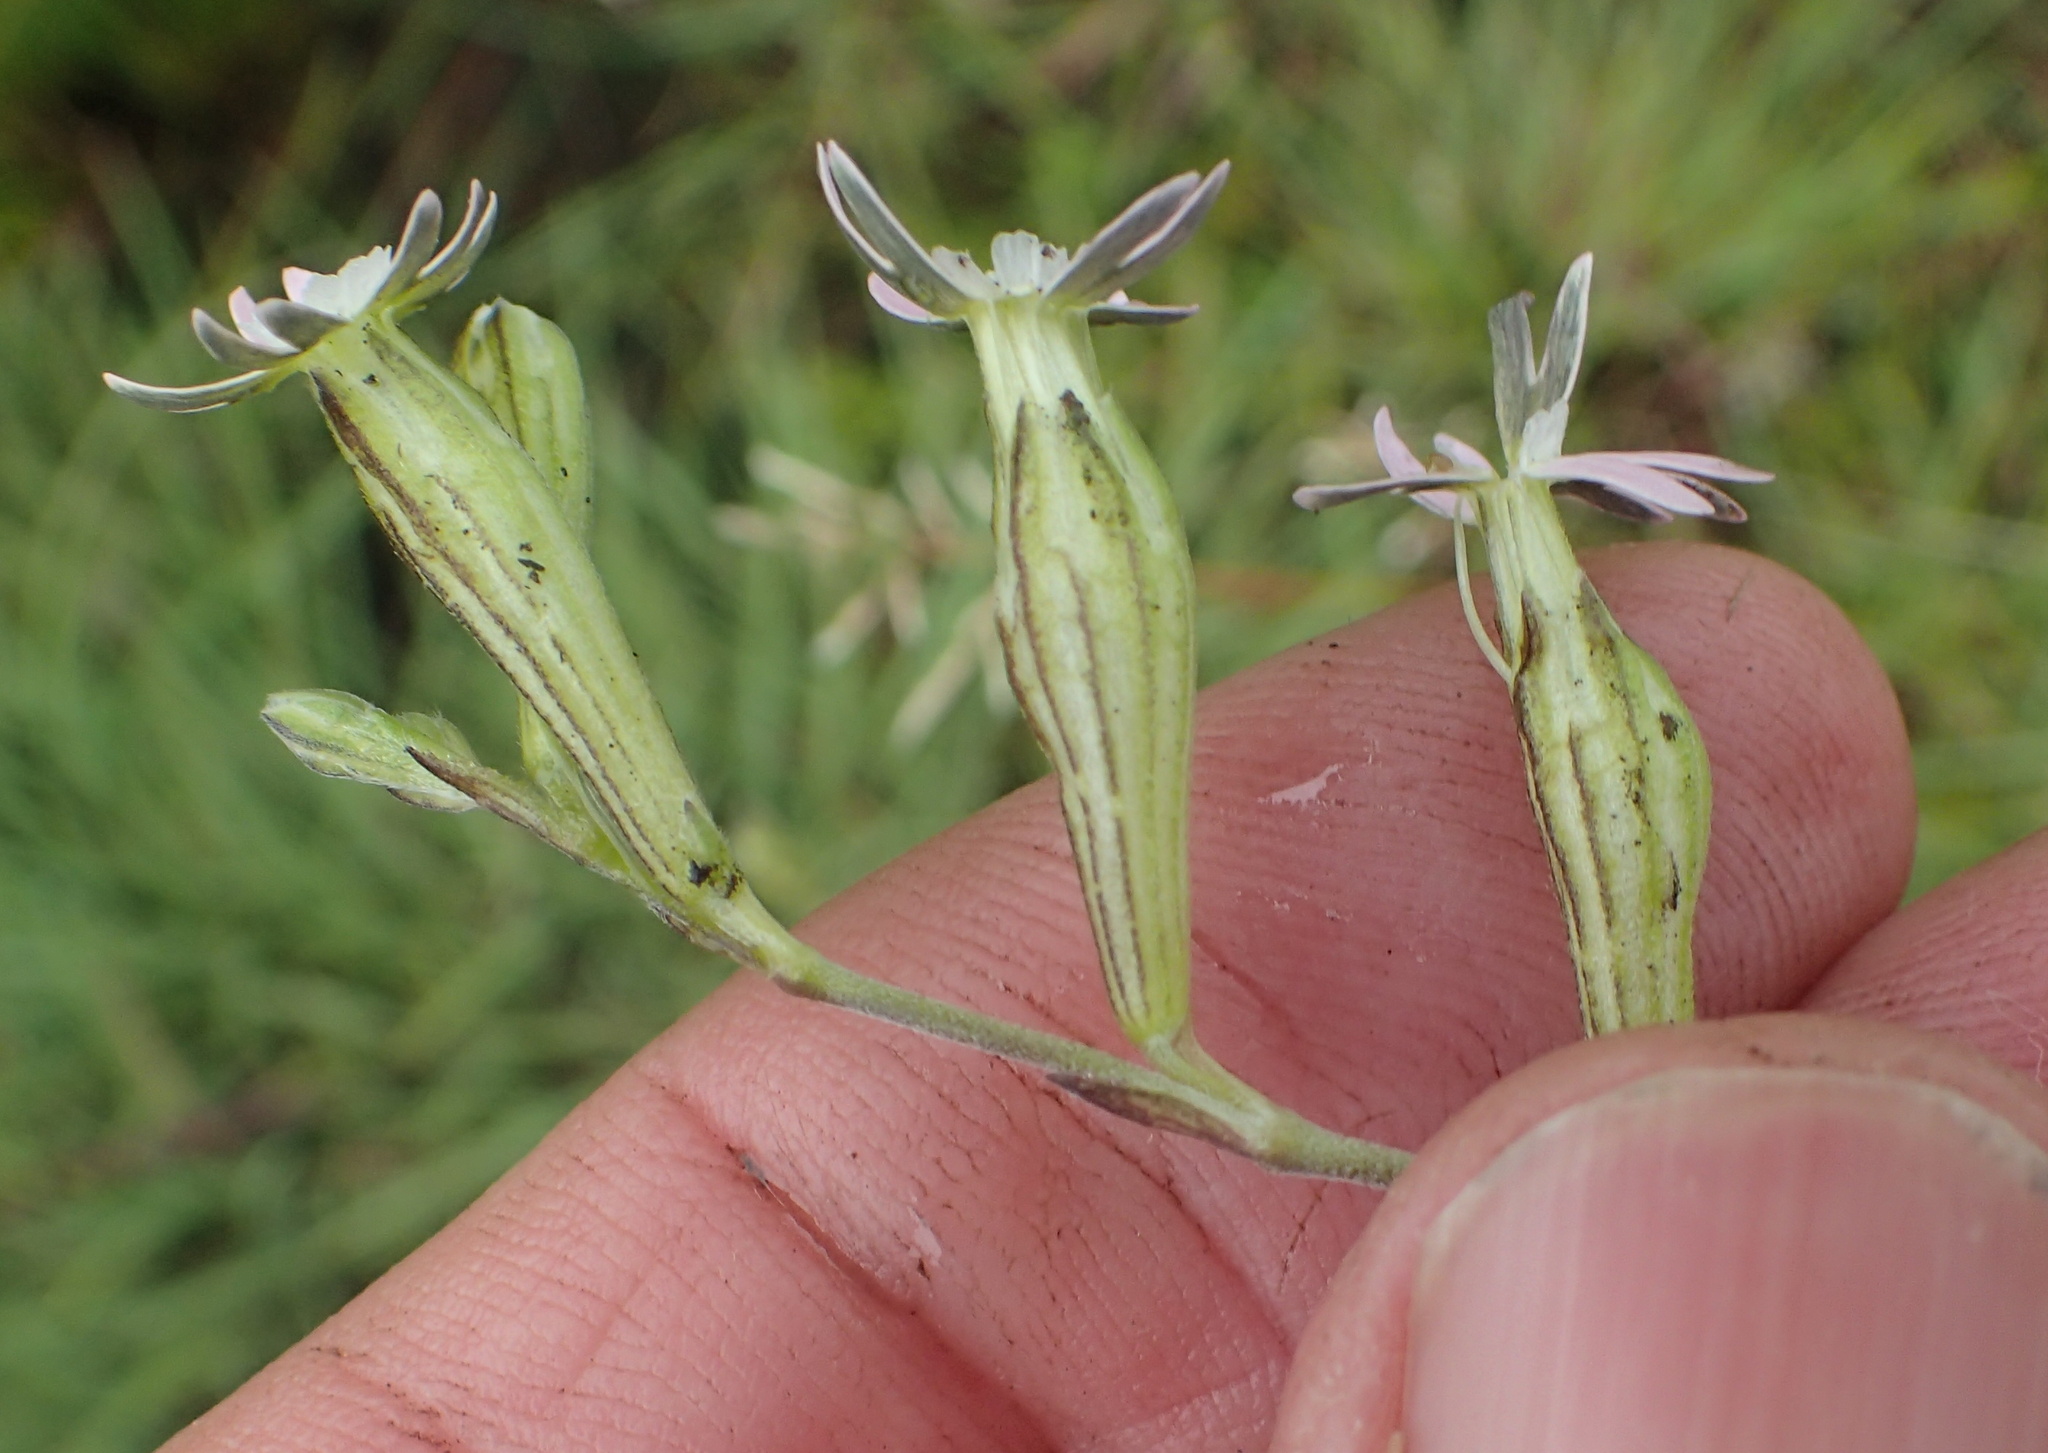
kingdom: Plantae
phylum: Tracheophyta
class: Magnoliopsida
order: Caryophyllales
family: Caryophyllaceae
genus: Silene
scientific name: Silene burchellii
